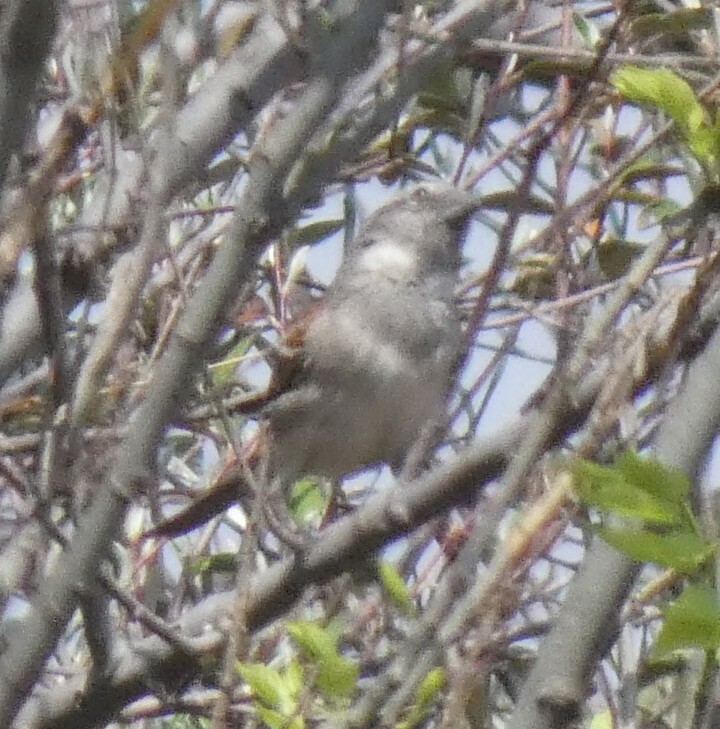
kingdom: Animalia
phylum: Chordata
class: Aves
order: Passeriformes
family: Passeridae
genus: Passer
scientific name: Passer melanurus
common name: Cape sparrow
